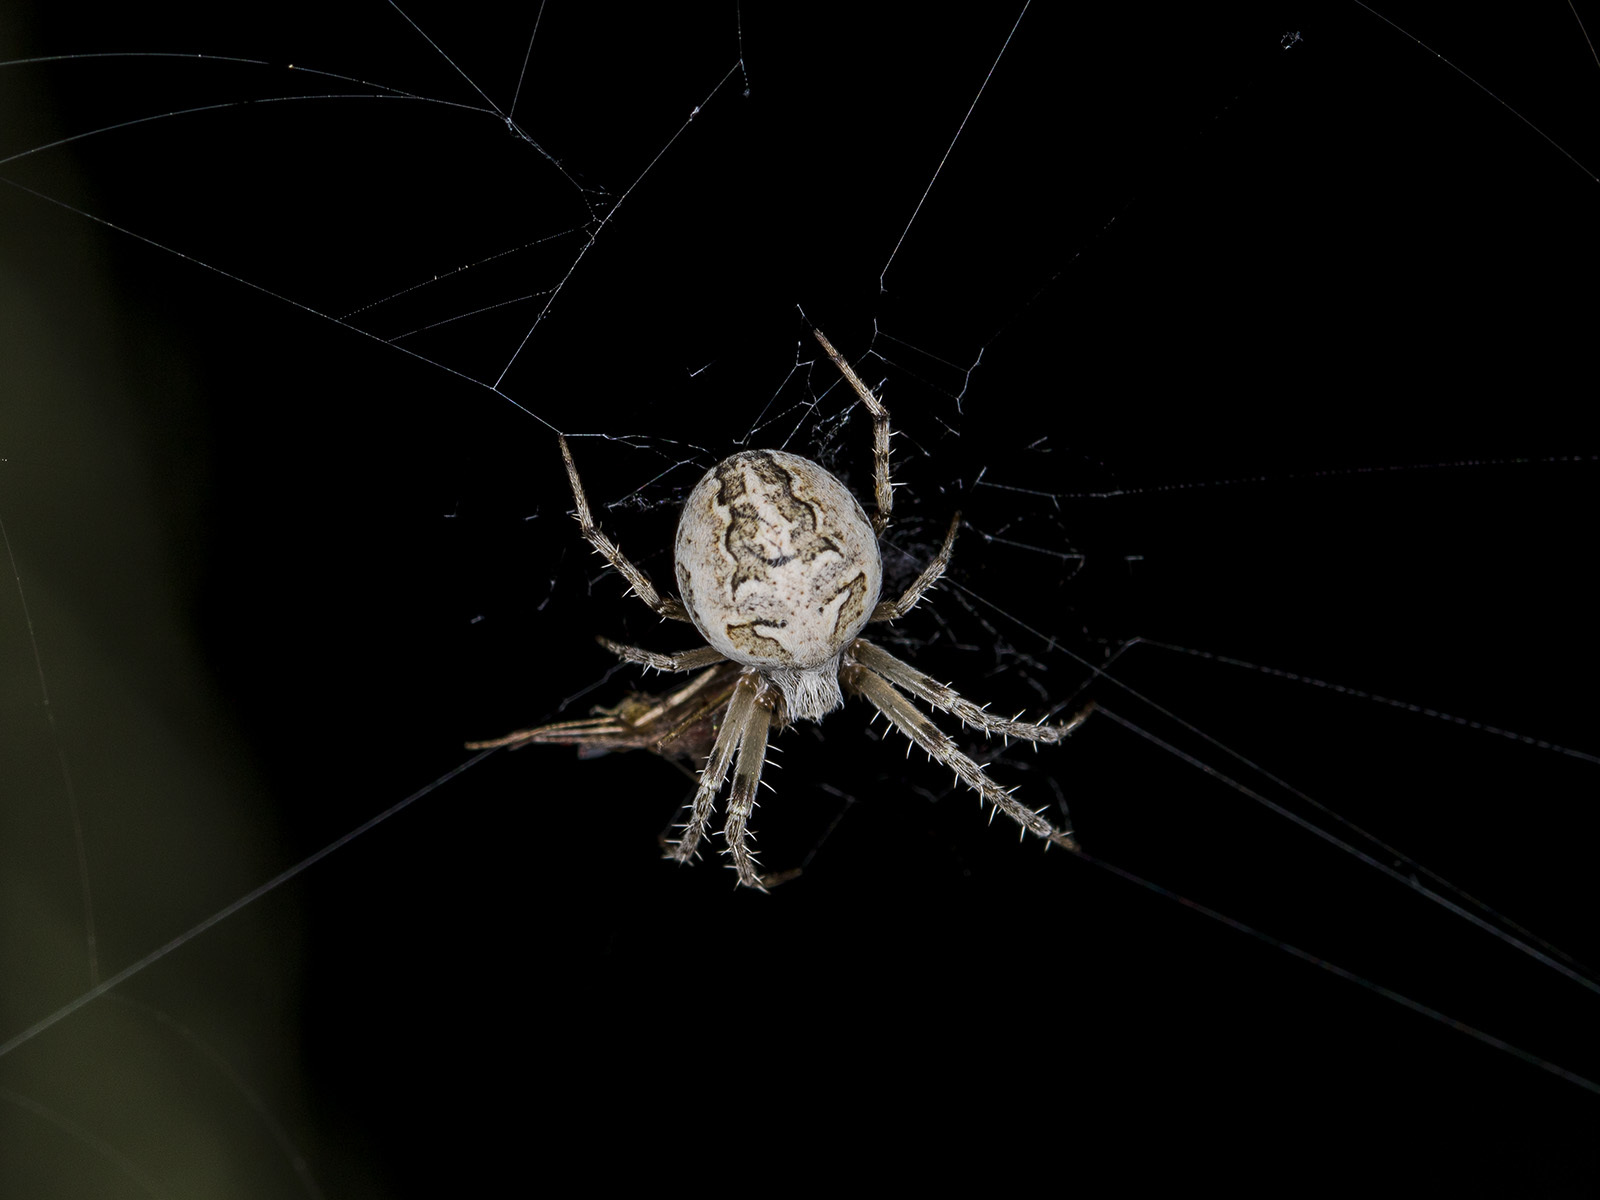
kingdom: Animalia
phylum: Arthropoda
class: Arachnida
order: Araneae
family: Araneidae
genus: Araneus
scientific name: Araneus pallasi
